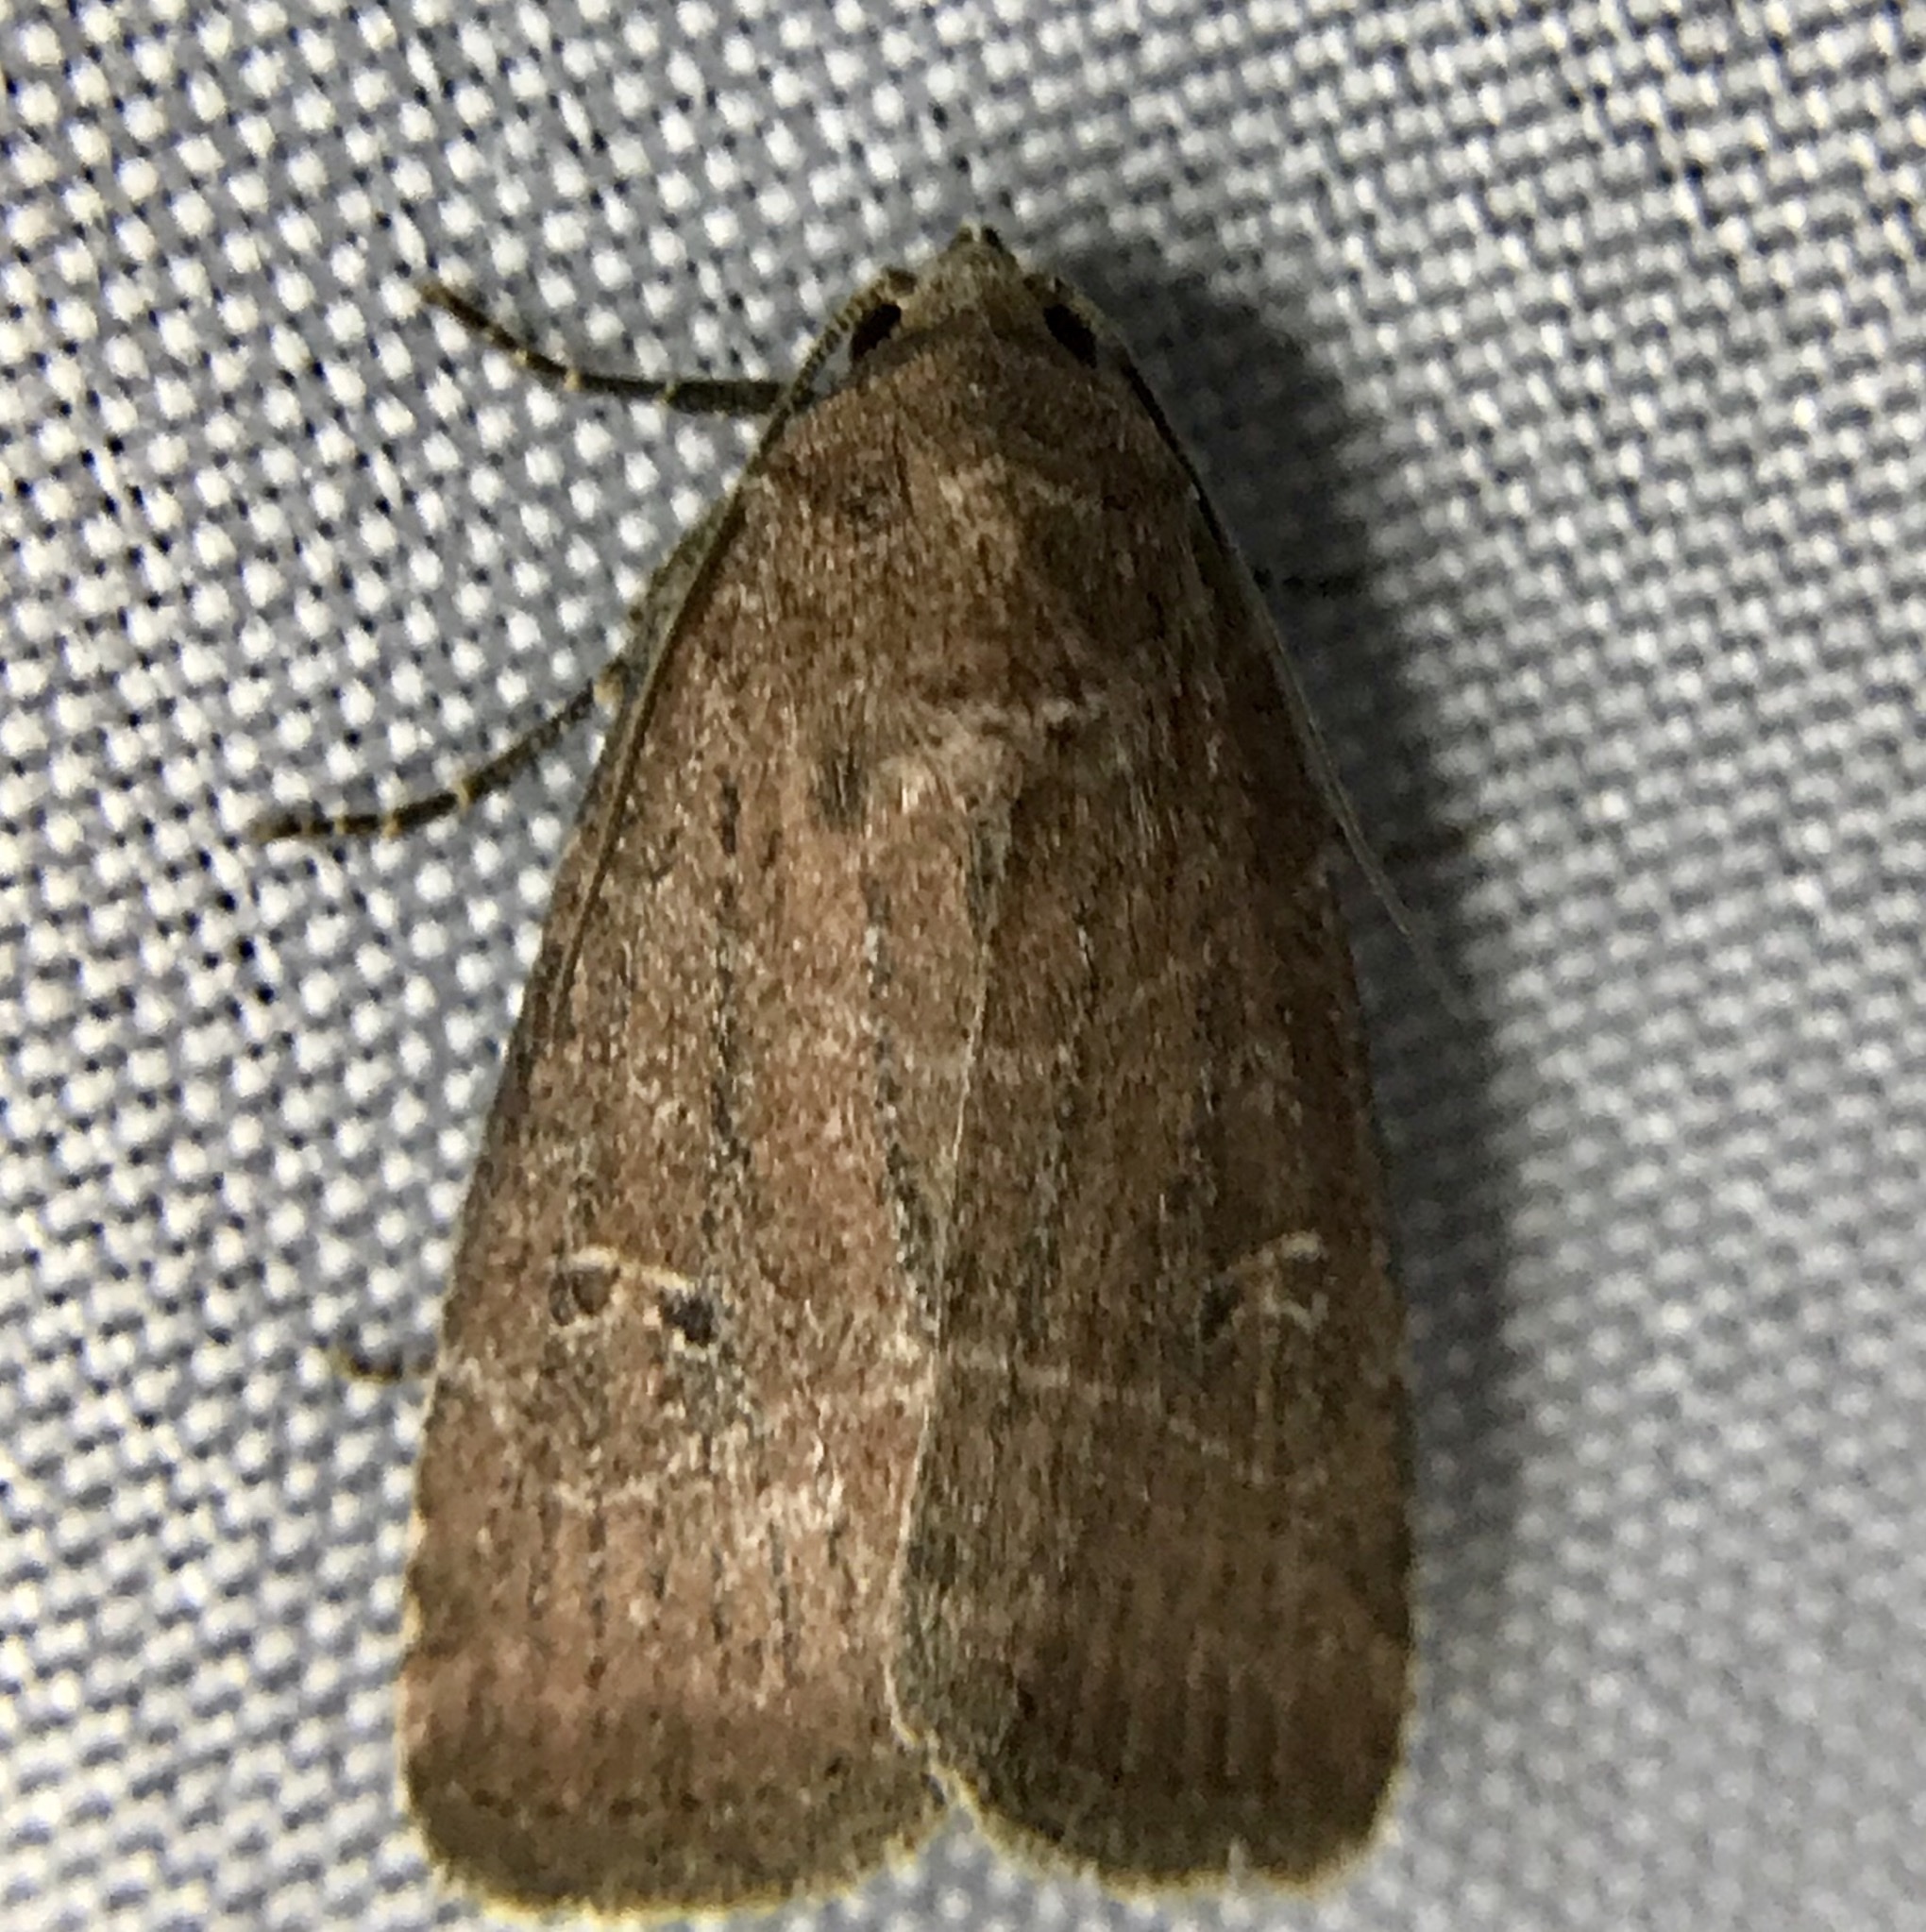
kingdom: Animalia
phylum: Arthropoda
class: Insecta
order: Lepidoptera
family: Noctuidae
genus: Elaphria
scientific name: Elaphria grata
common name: Grateful midget moth
